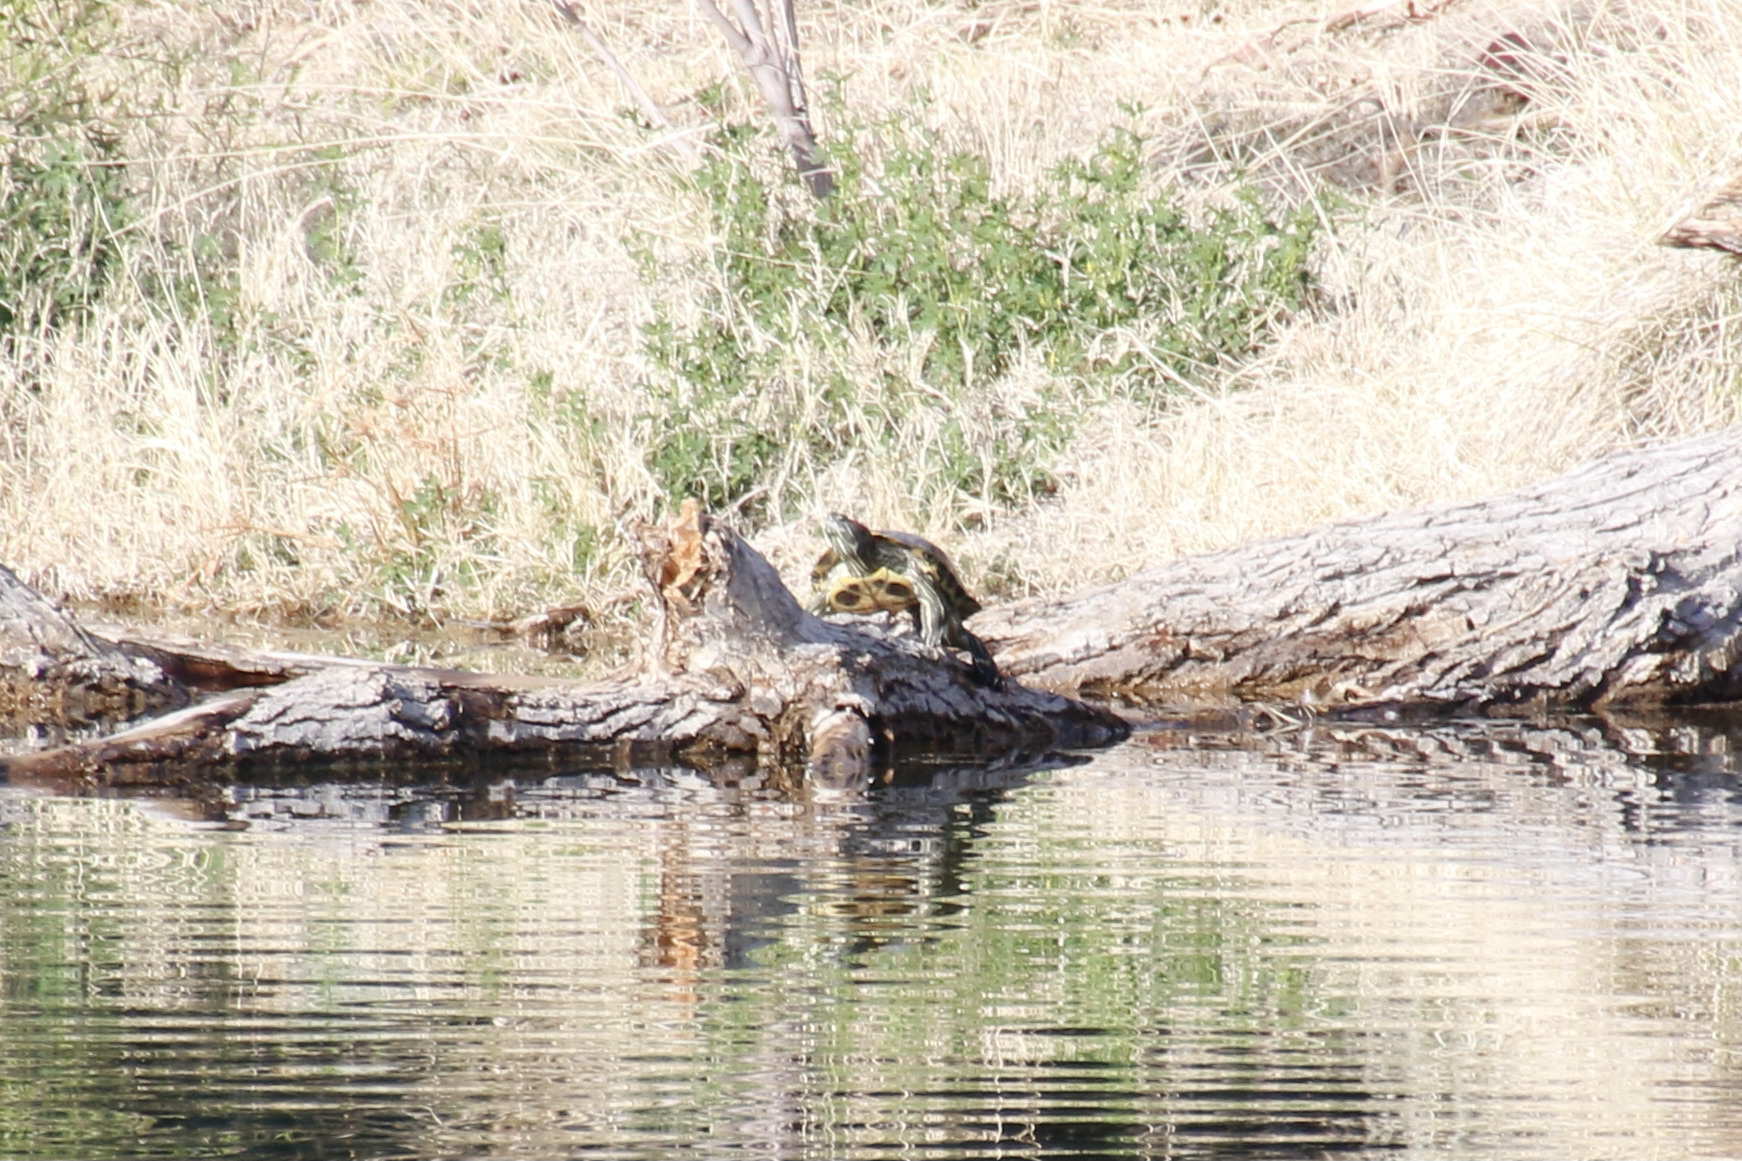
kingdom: Animalia
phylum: Chordata
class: Testudines
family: Emydidae
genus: Trachemys
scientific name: Trachemys scripta
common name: Slider
